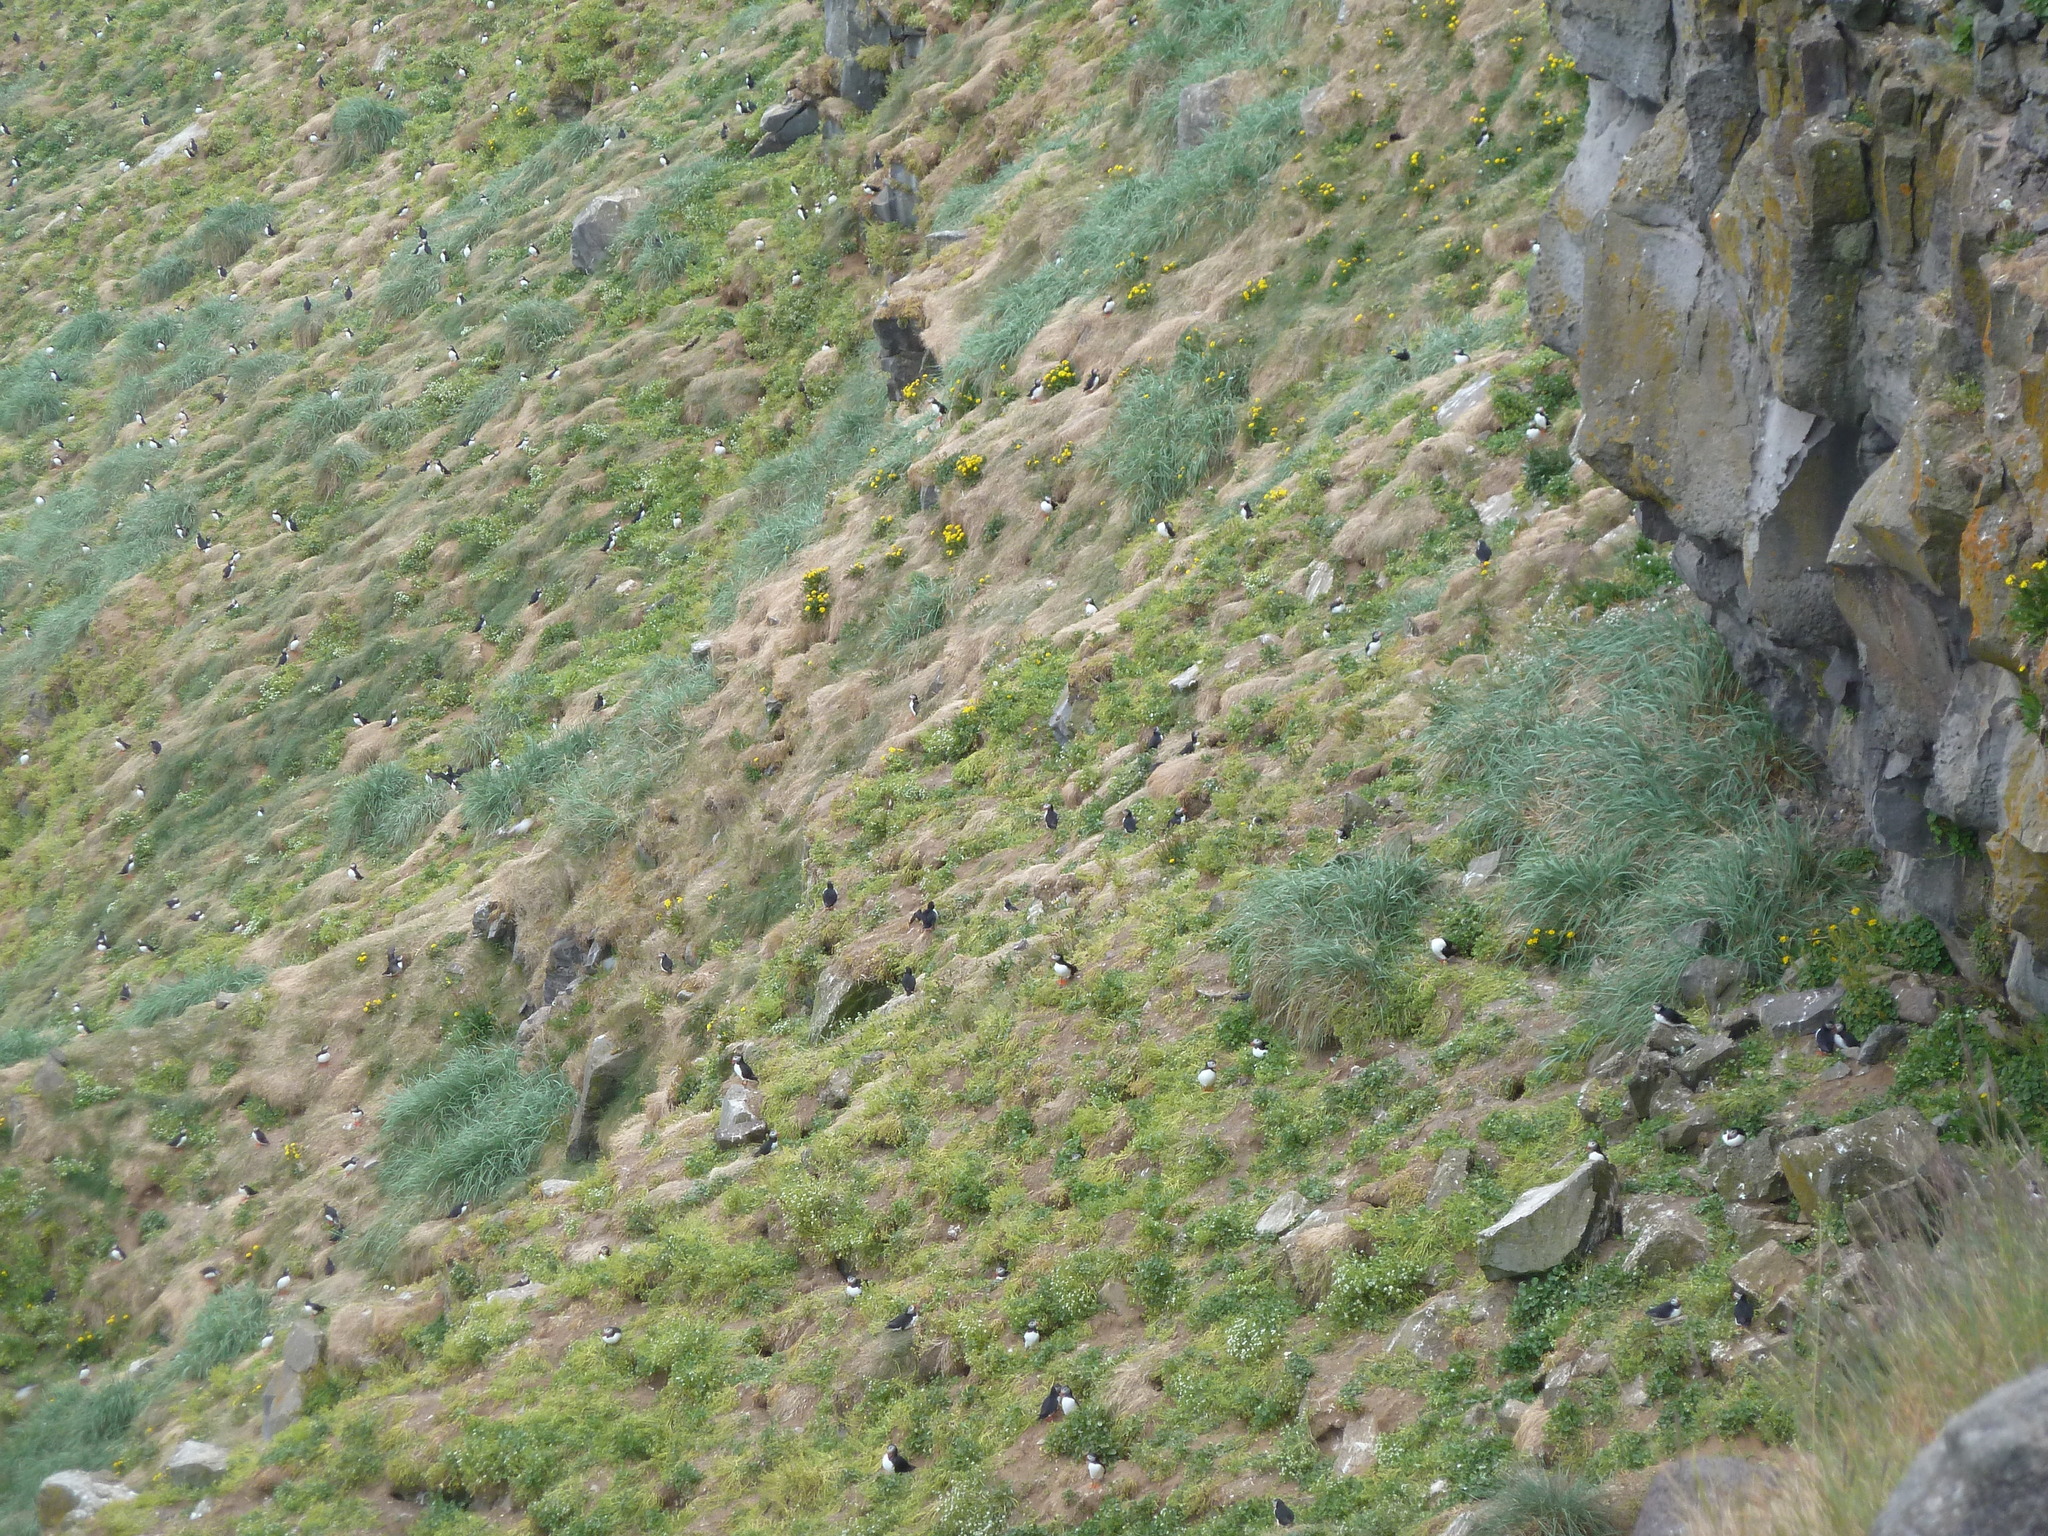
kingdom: Animalia
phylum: Chordata
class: Aves
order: Charadriiformes
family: Alcidae
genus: Fratercula
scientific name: Fratercula arctica
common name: Atlantic puffin
